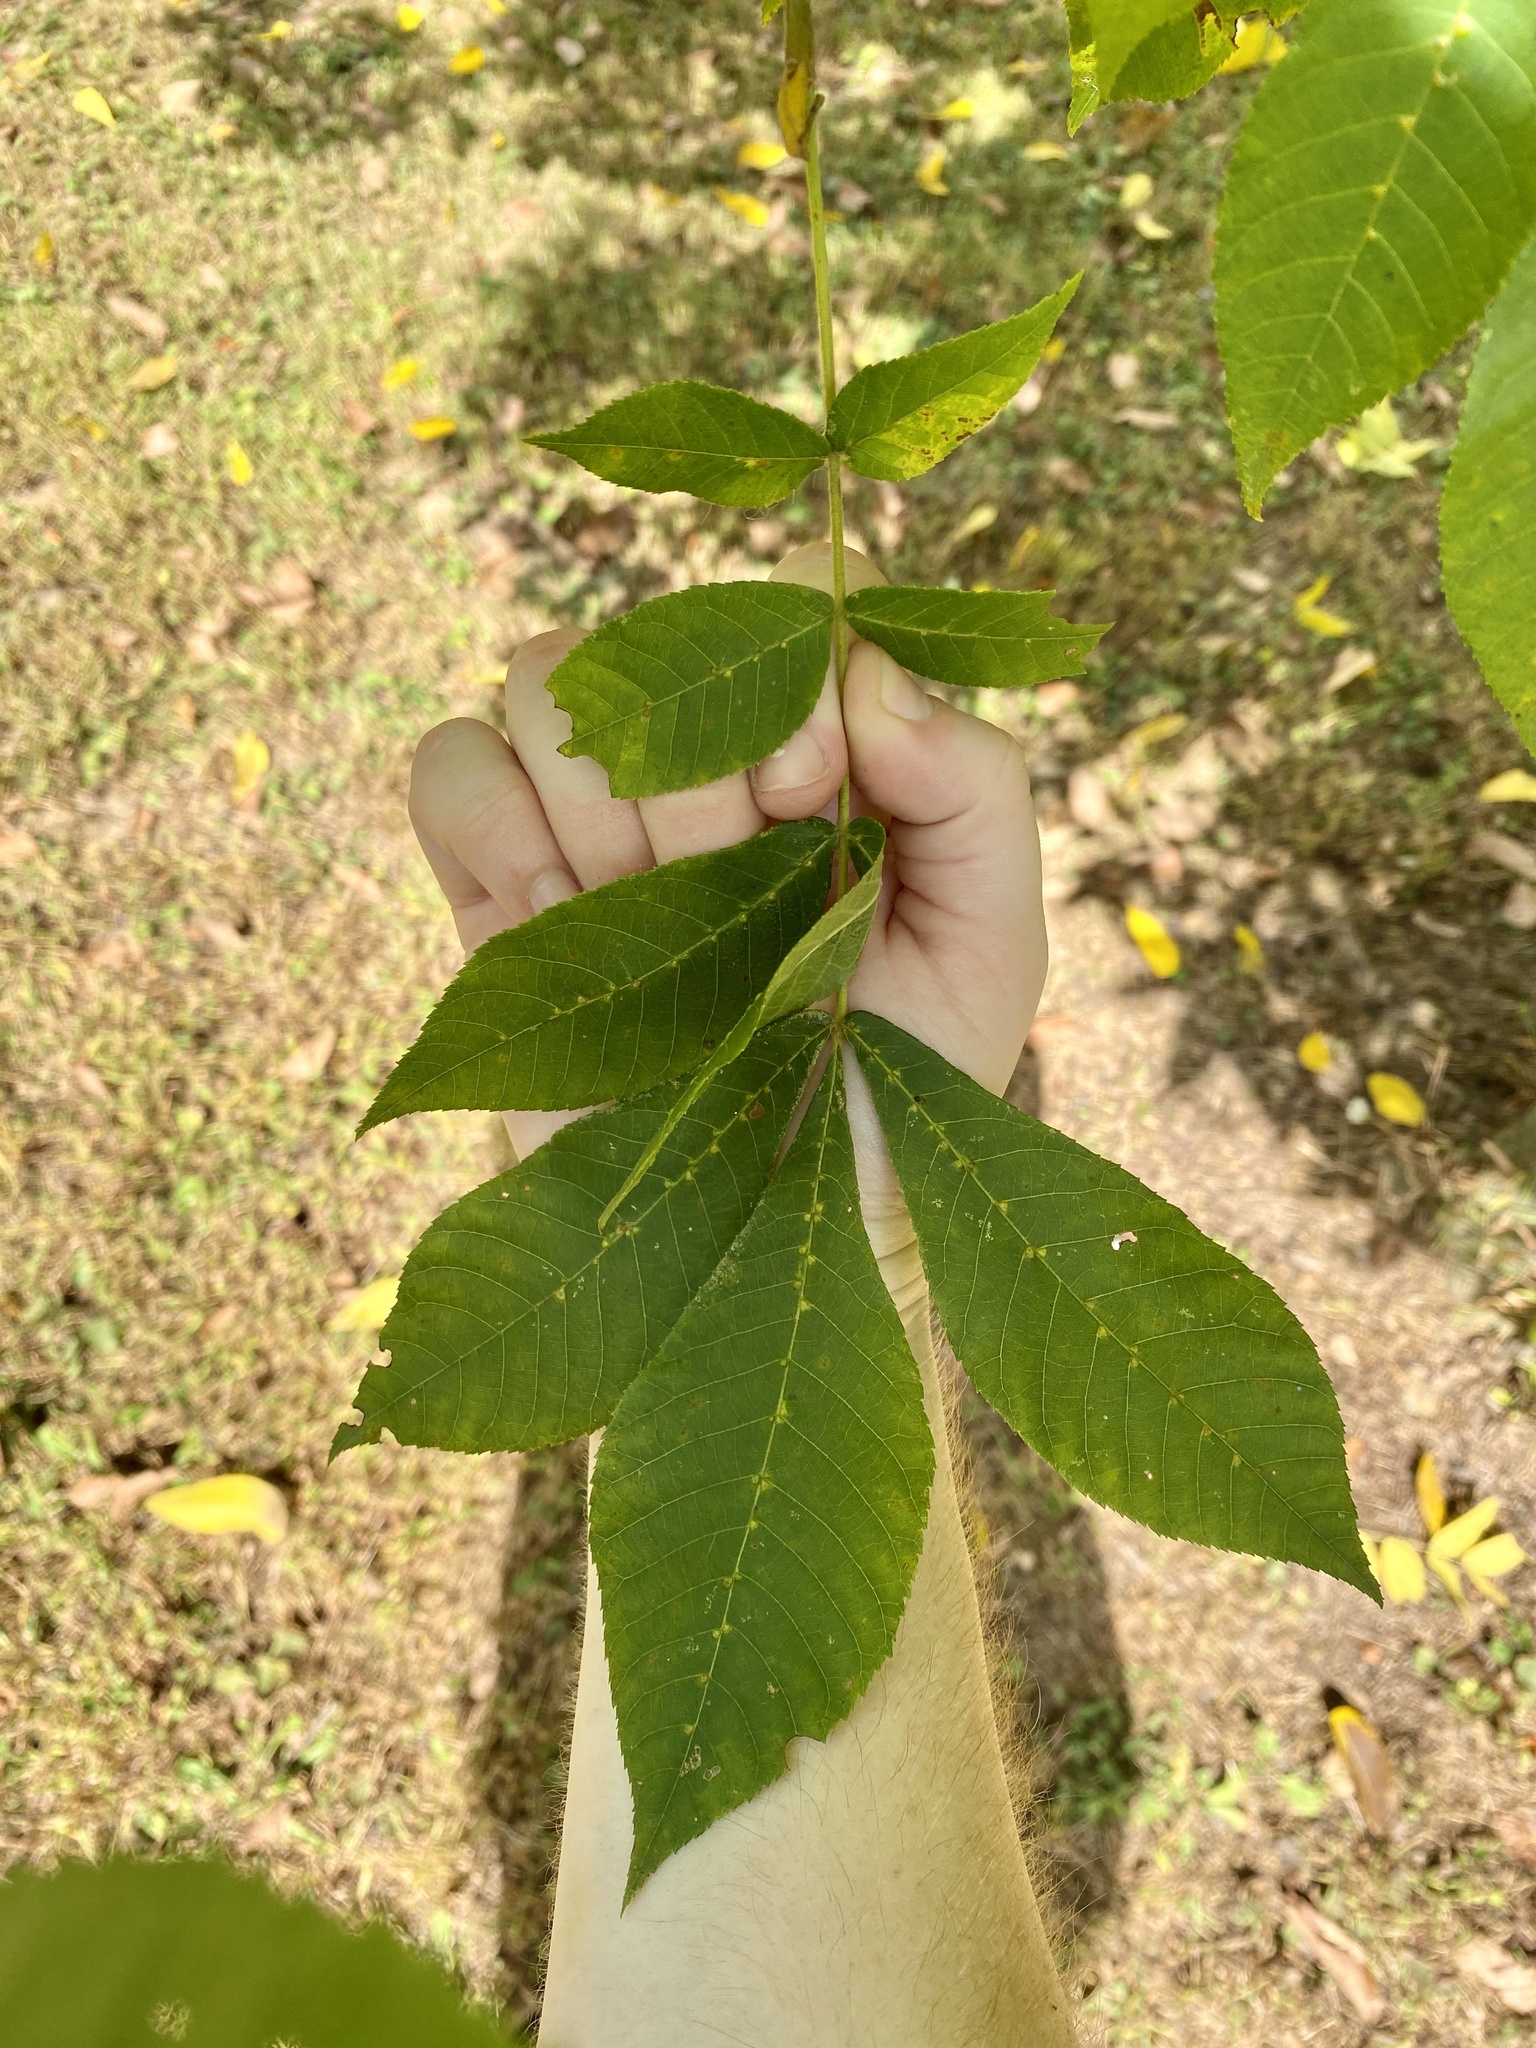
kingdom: Animalia
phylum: Arthropoda
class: Arachnida
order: Trombidiformes
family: Eriophyidae
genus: Aceria
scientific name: Aceria
